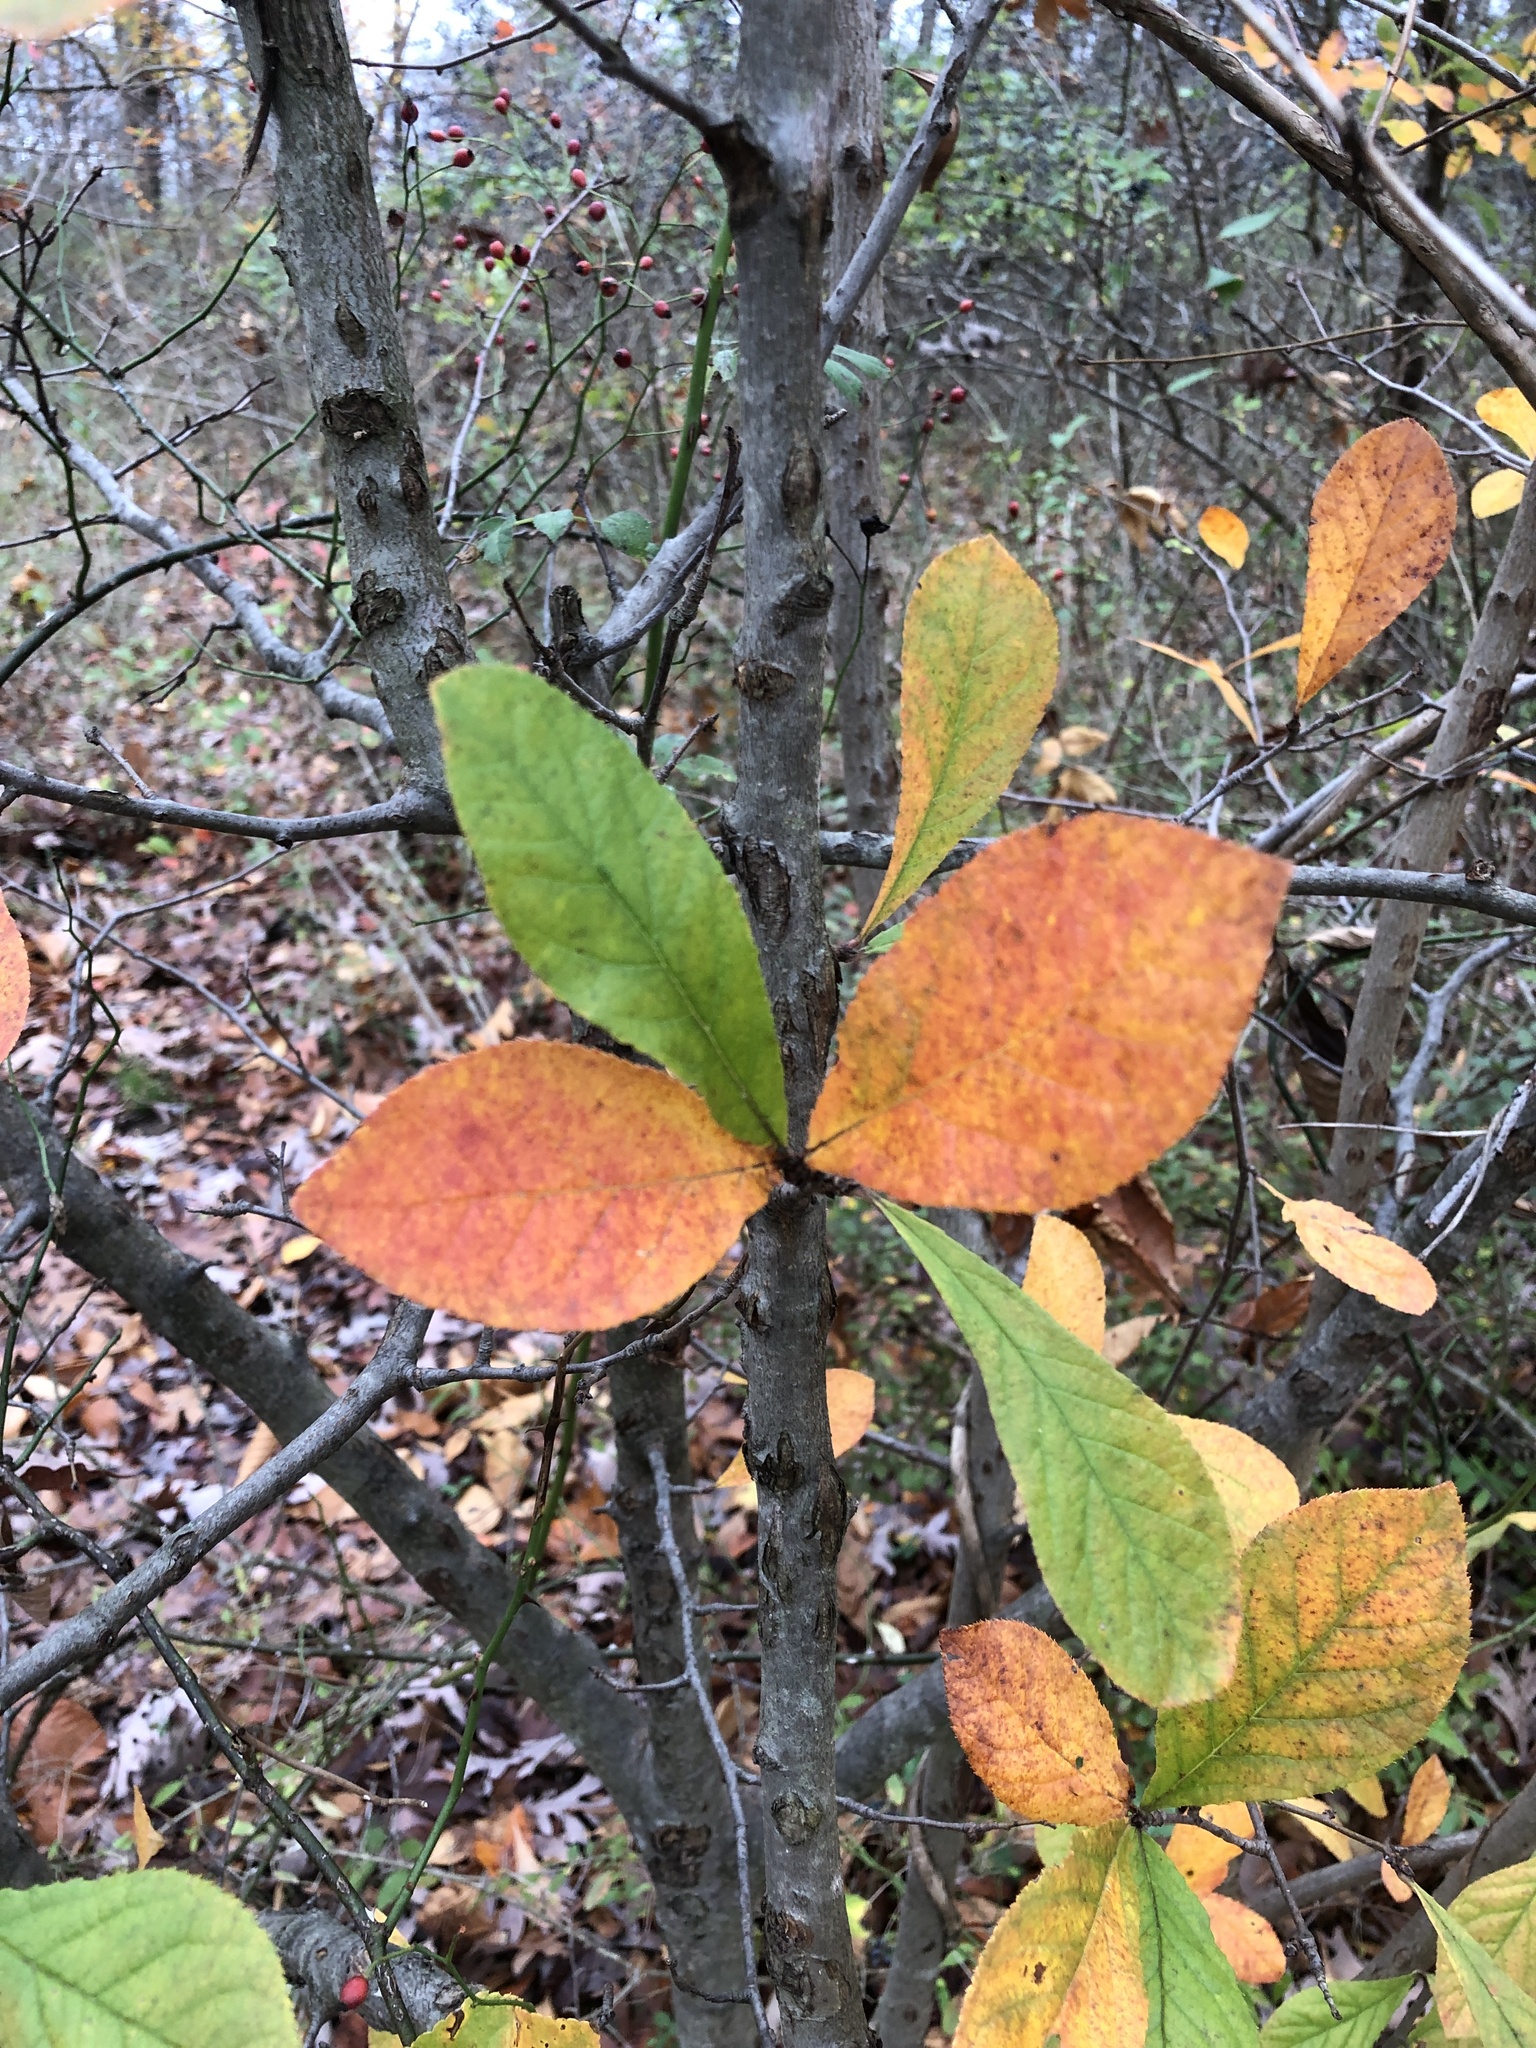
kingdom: Plantae
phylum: Tracheophyta
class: Magnoliopsida
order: Rosales
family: Rosaceae
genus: Pourthiaea
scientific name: Pourthiaea villosa
